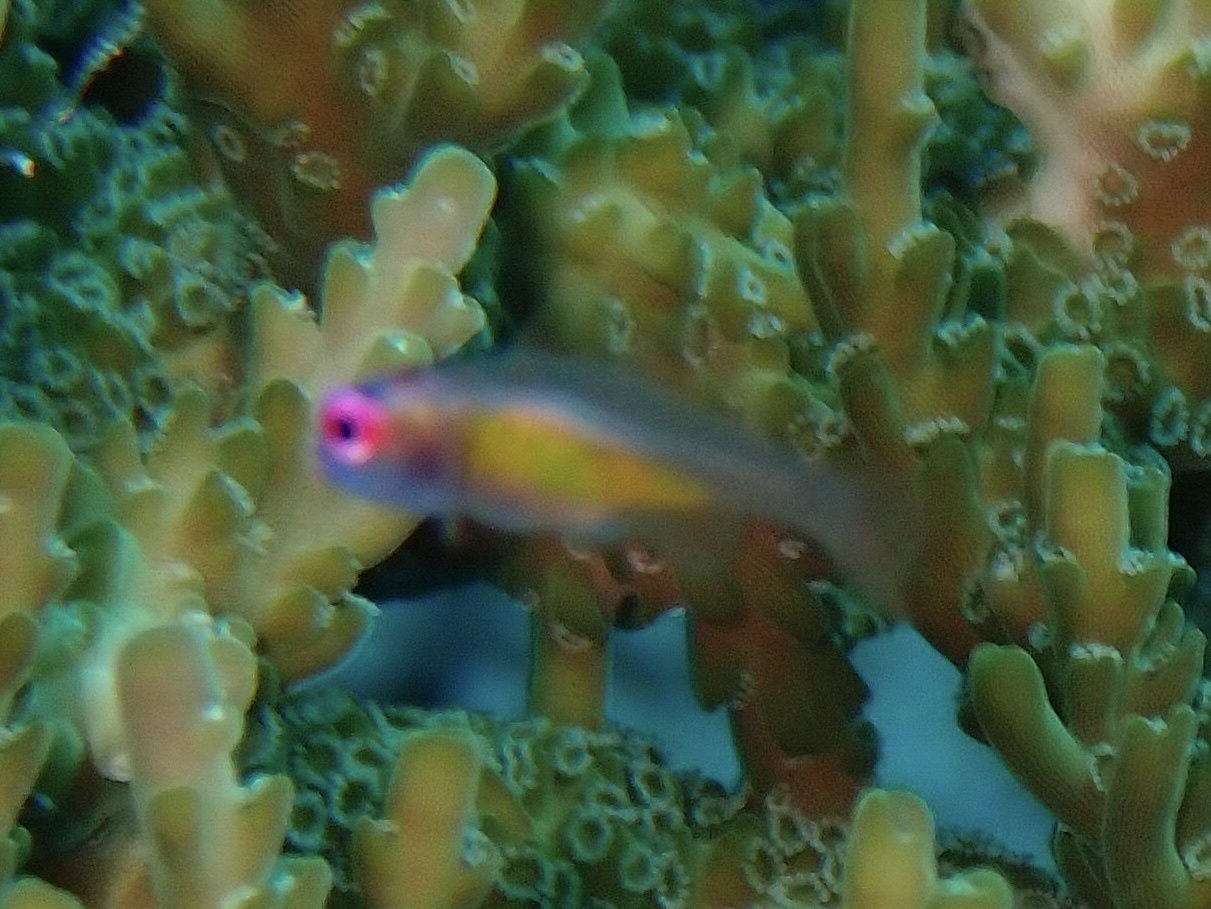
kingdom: Animalia
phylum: Chordata
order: Perciformes
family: Gobiidae
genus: Bryaninops
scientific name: Bryaninops natans
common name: Redeye goby
